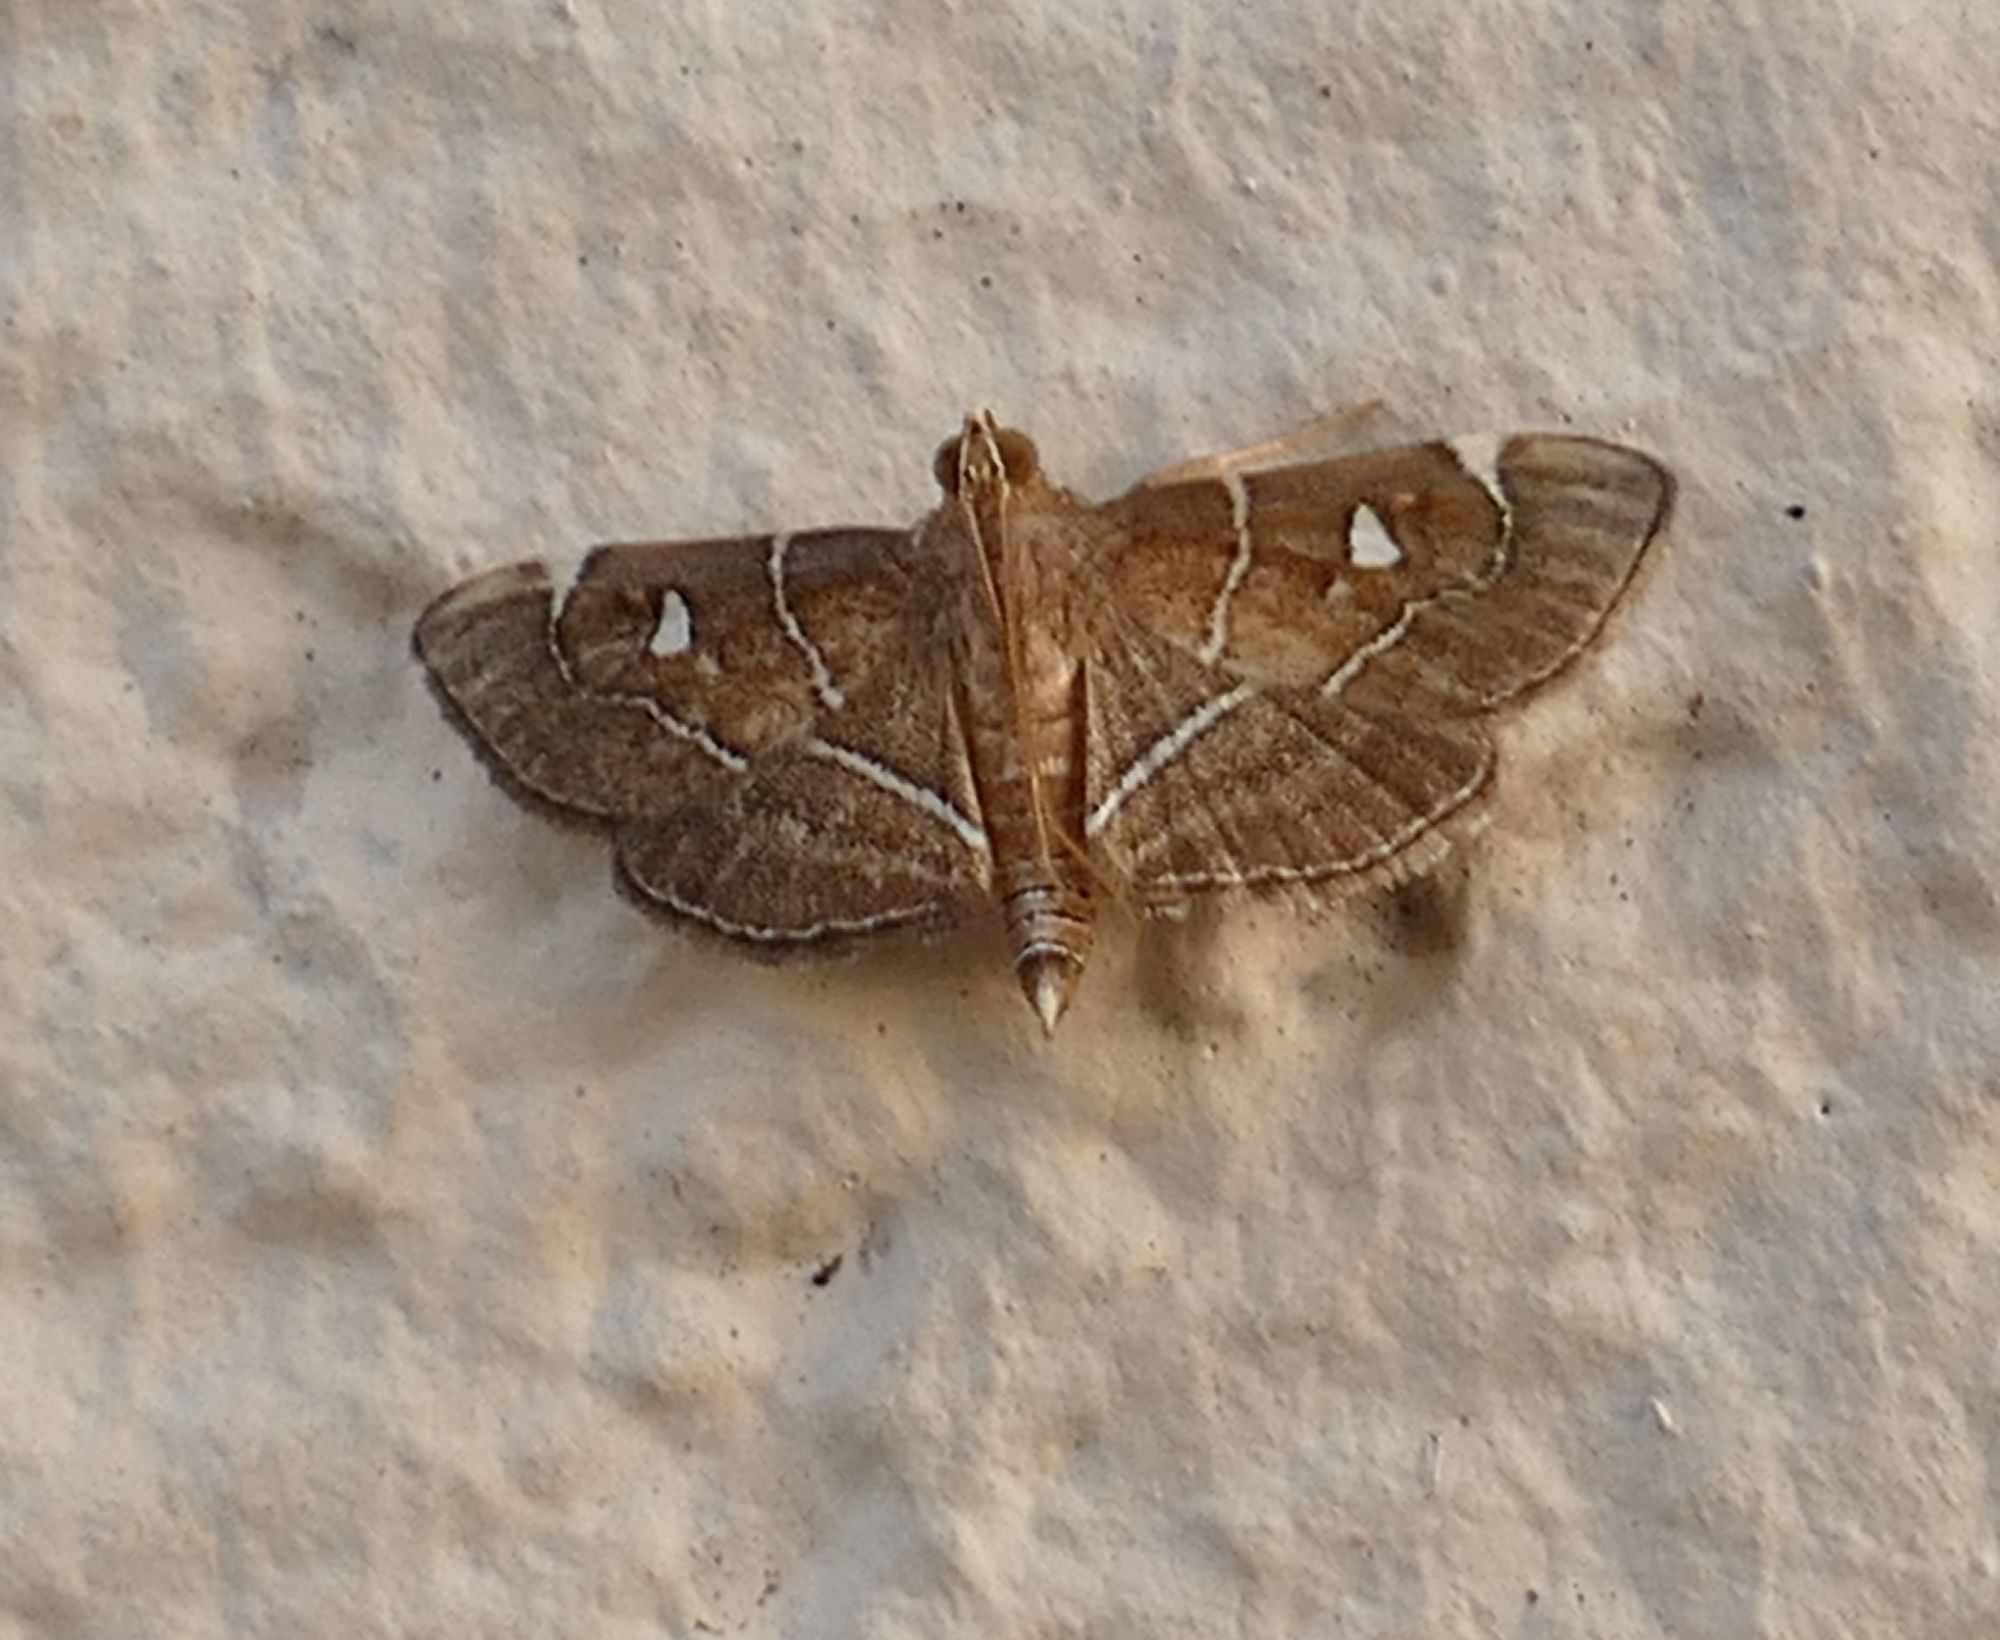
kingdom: Animalia
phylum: Arthropoda
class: Insecta
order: Lepidoptera
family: Crambidae
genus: Lamprosema
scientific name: Lamprosema victoriae
